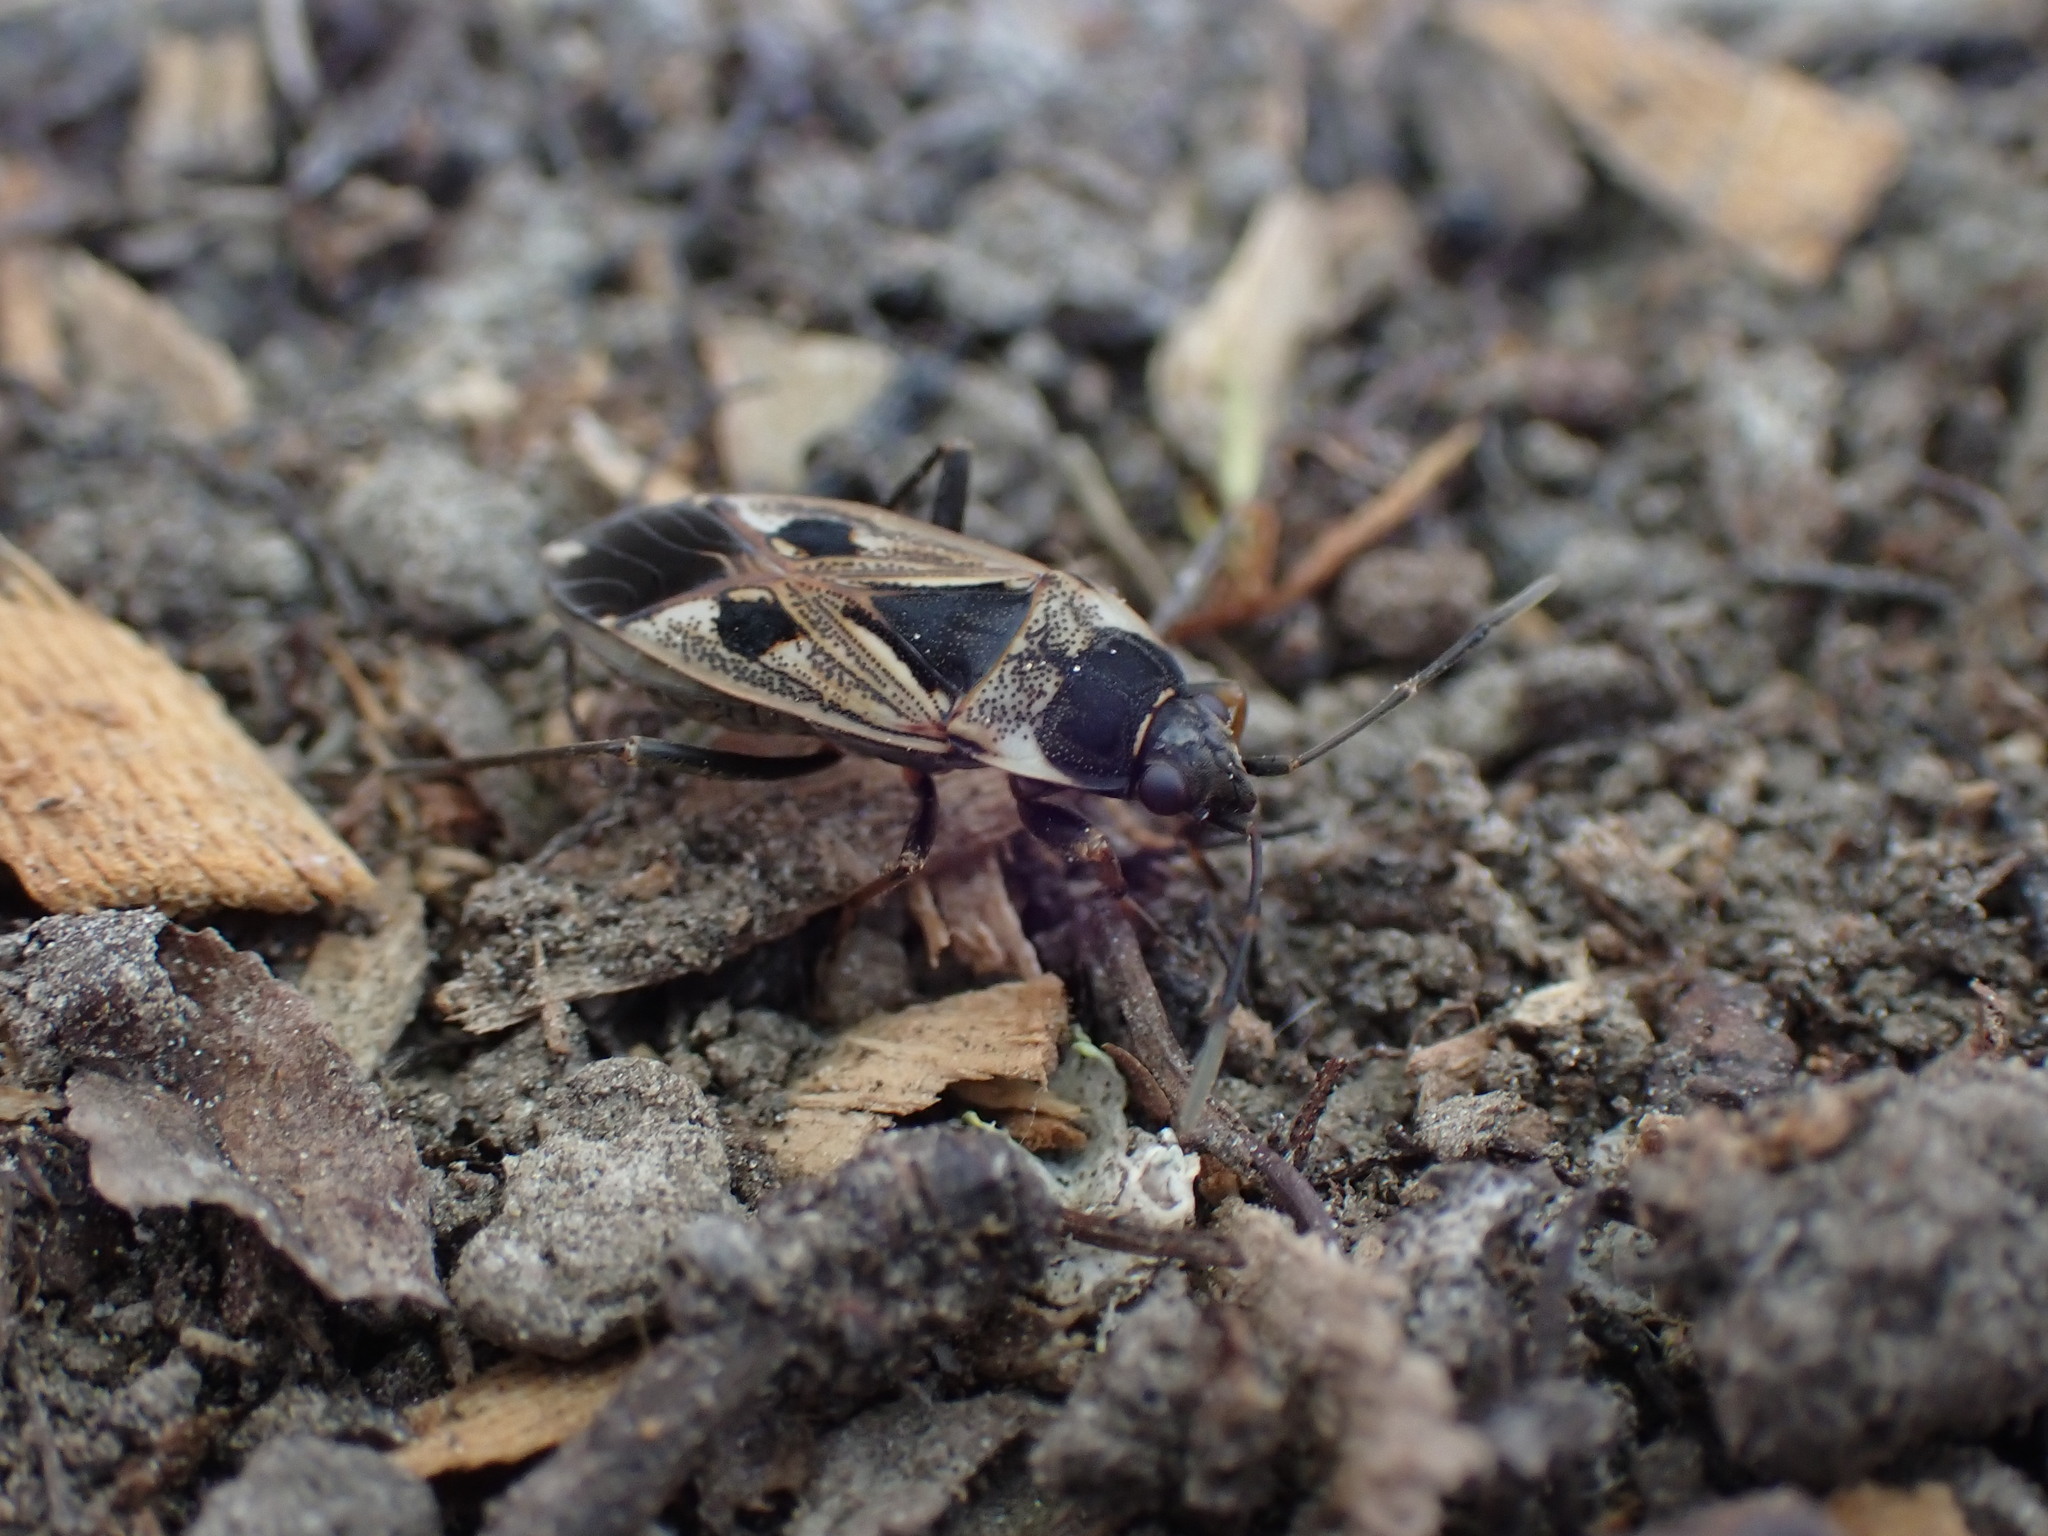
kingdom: Animalia
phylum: Arthropoda
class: Insecta
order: Hemiptera
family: Rhyparochromidae
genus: Rhyparochromus
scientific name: Rhyparochromus vulgaris
